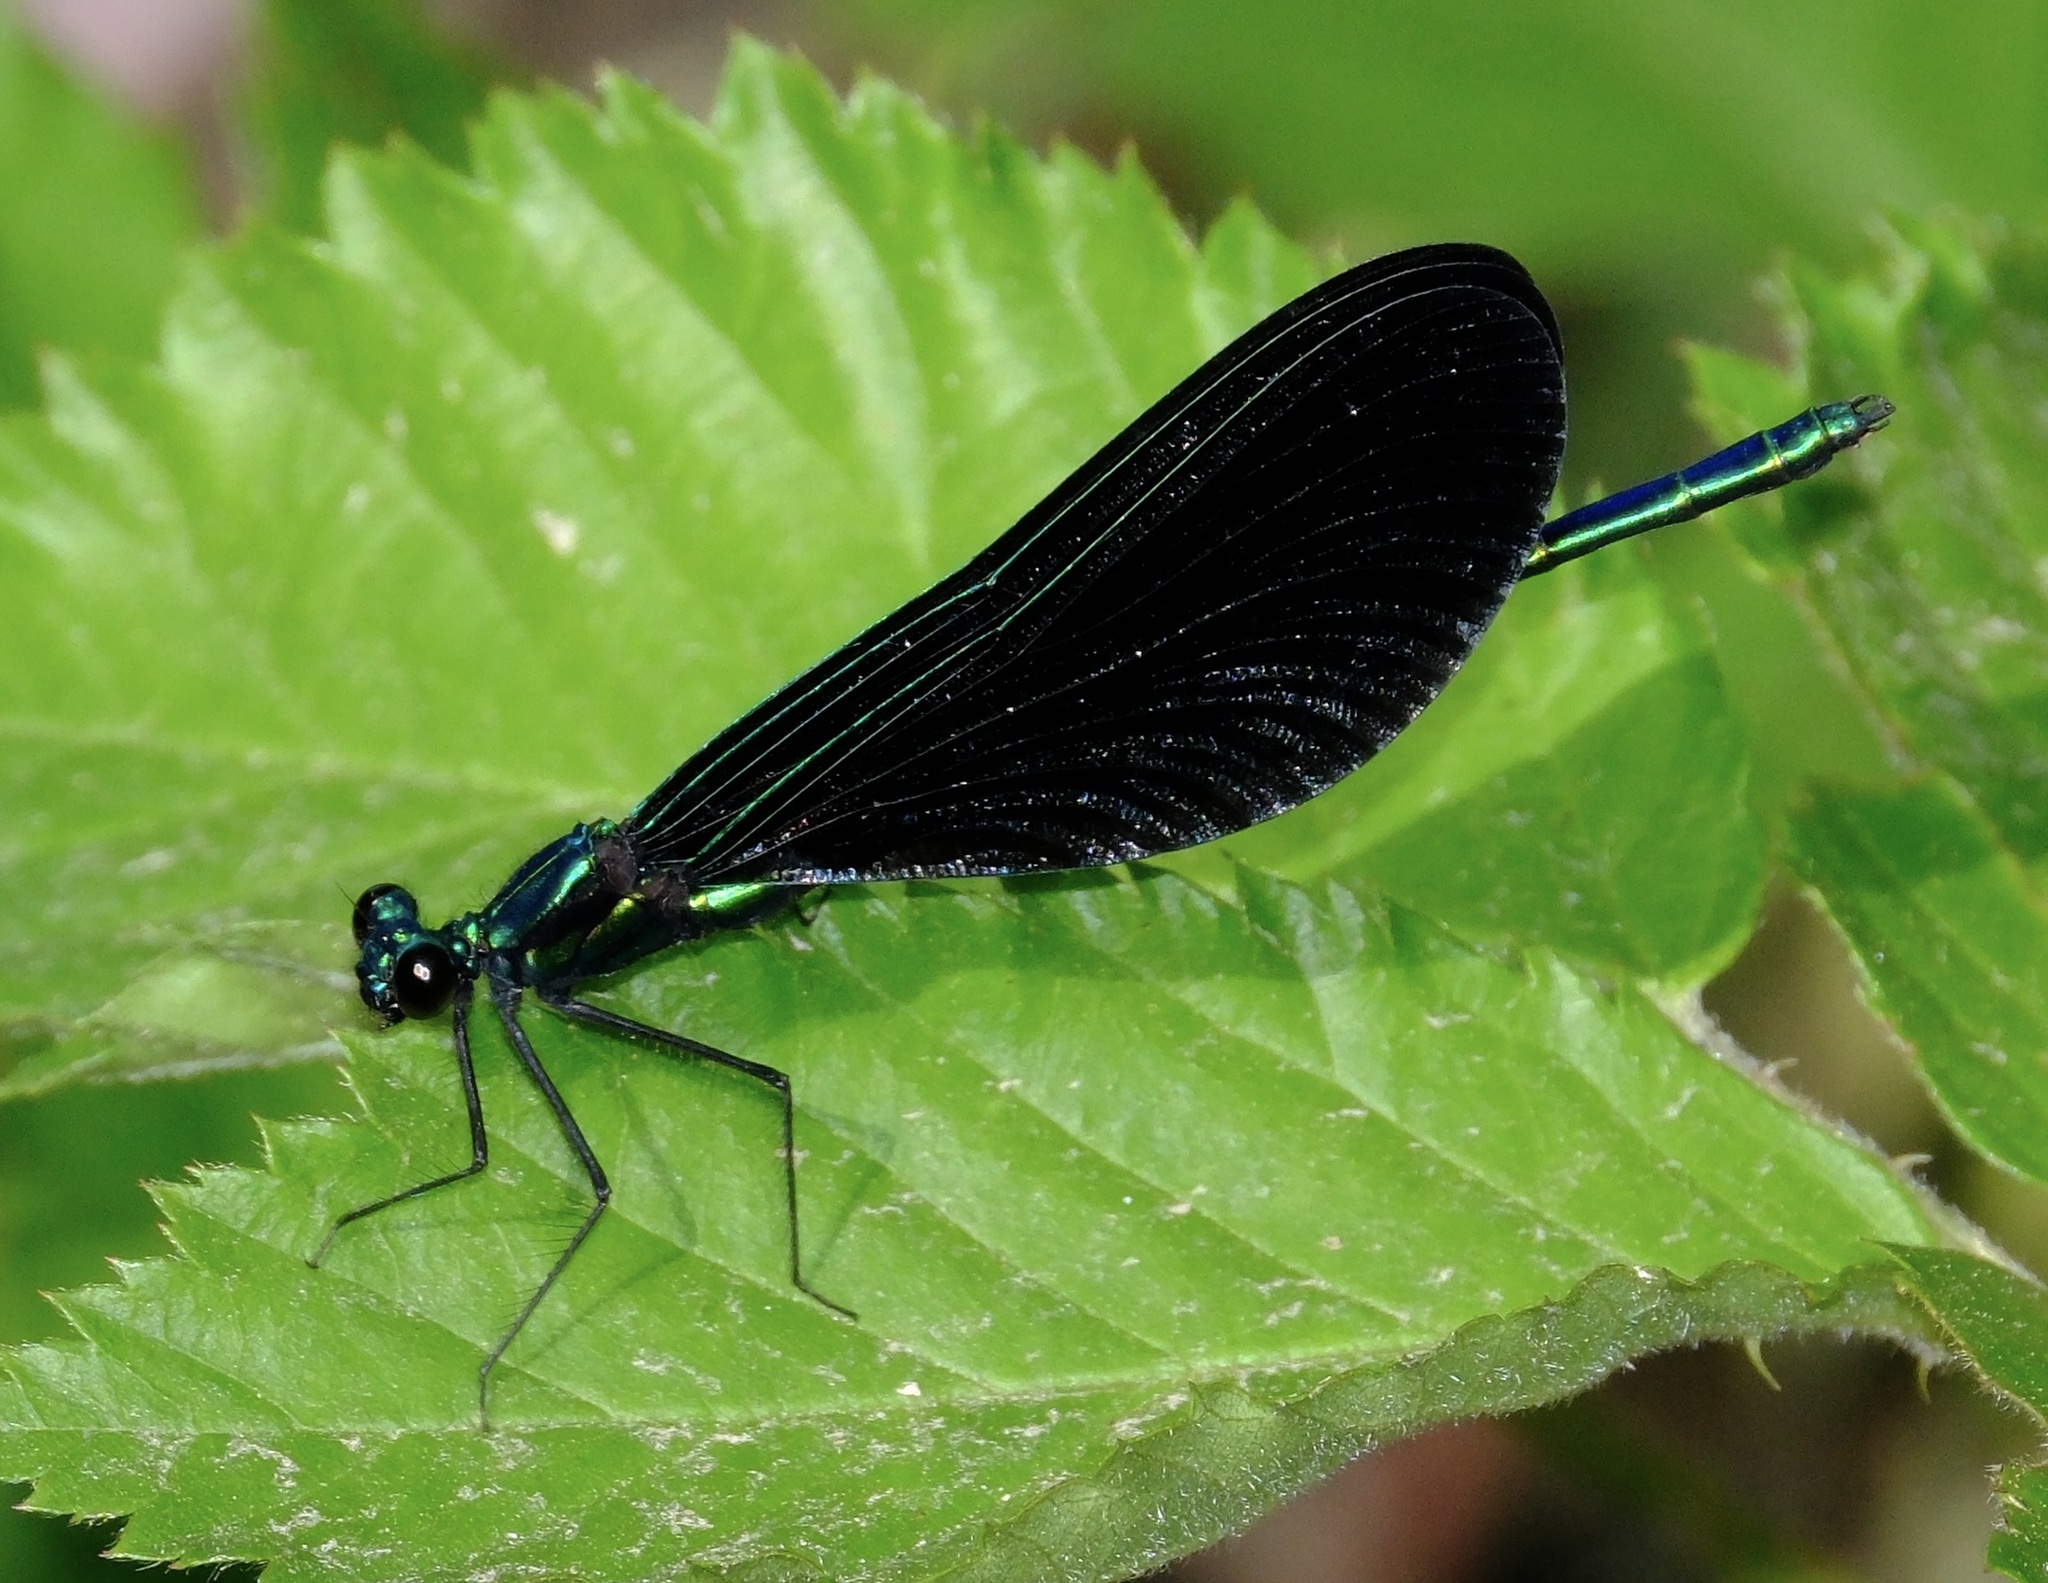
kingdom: Animalia
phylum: Arthropoda
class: Insecta
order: Odonata
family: Calopterygidae
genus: Calopteryx
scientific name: Calopteryx maculata
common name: Ebony jewelwing
